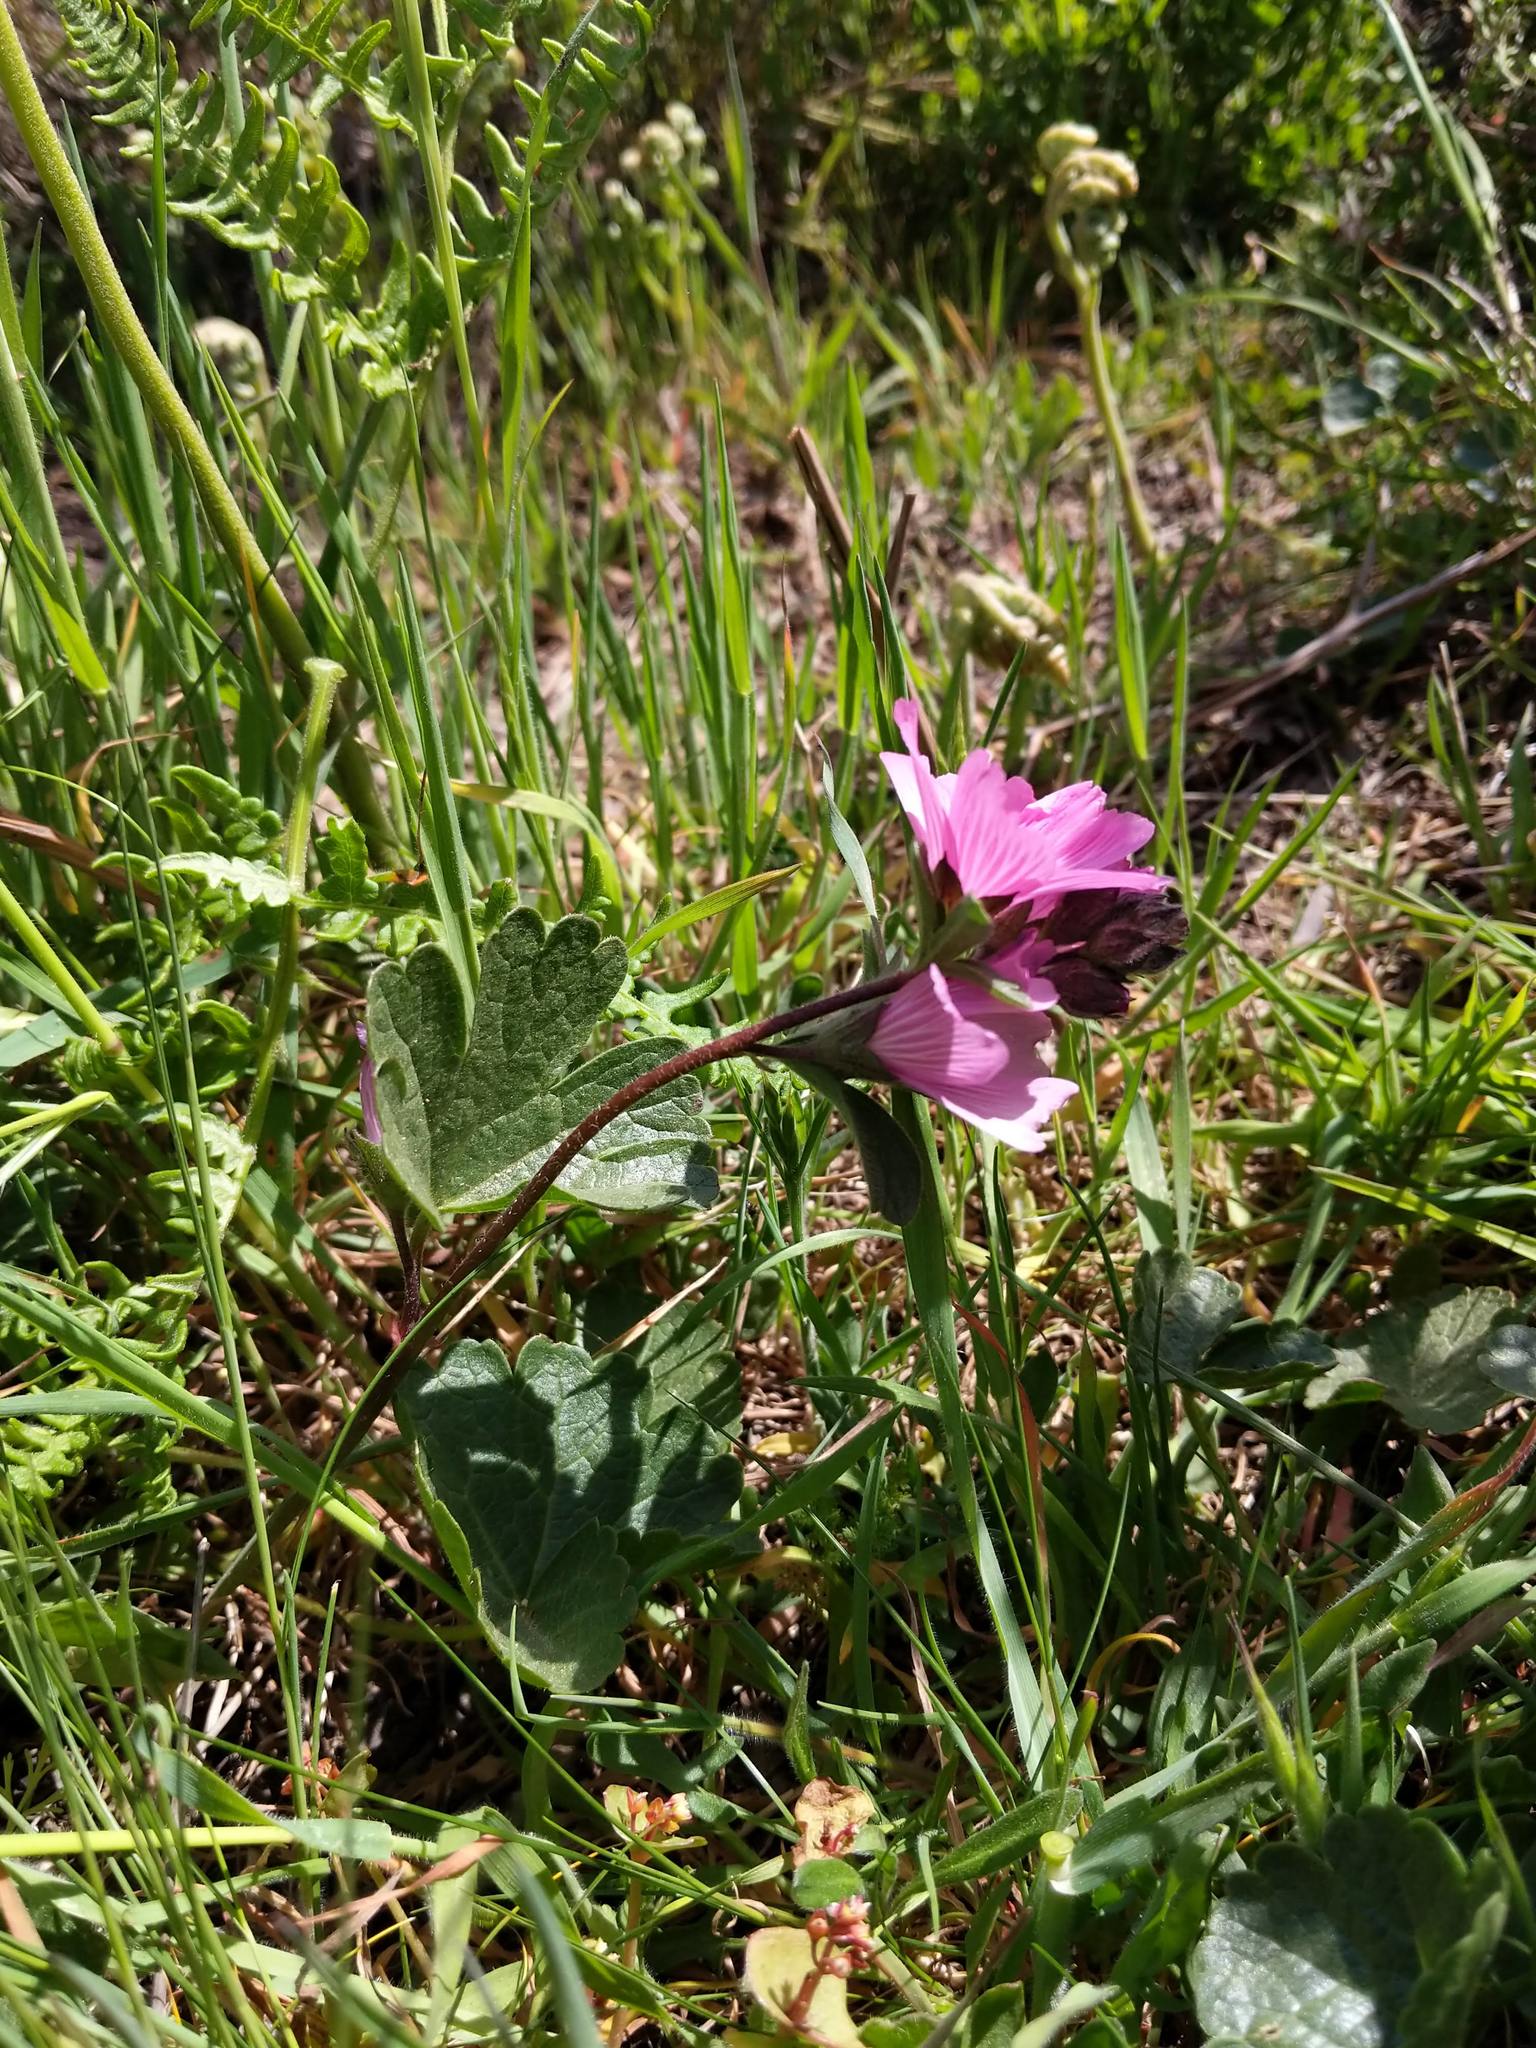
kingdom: Plantae
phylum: Tracheophyta
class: Magnoliopsida
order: Malvales
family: Malvaceae
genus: Sidalcea
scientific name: Sidalcea malviflora
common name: Greek mallow
